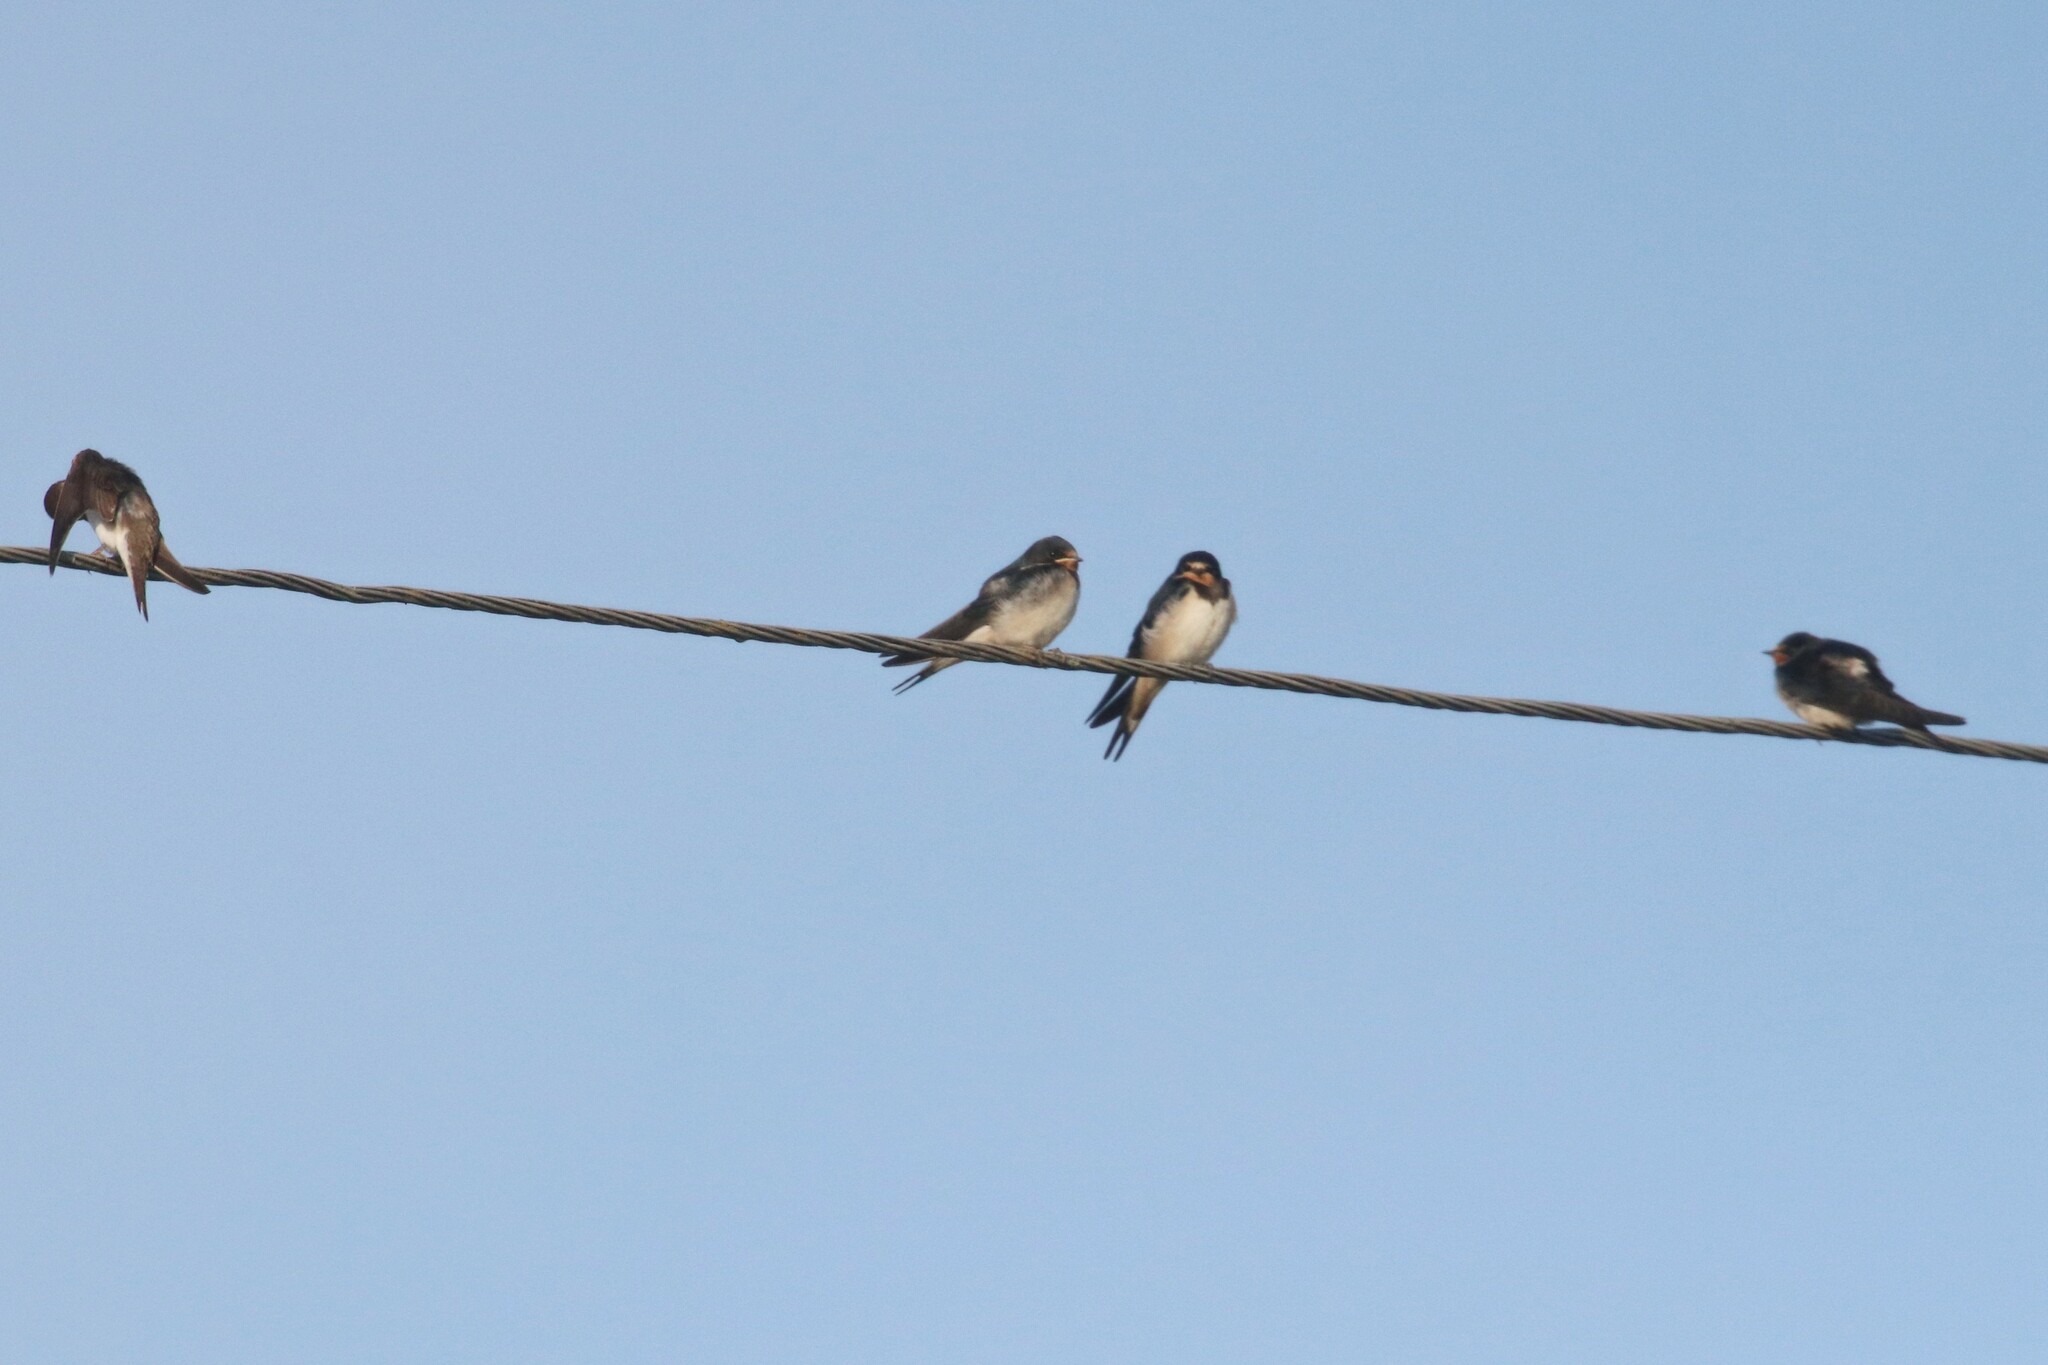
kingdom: Animalia
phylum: Chordata
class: Aves
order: Passeriformes
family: Hirundinidae
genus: Hirundo
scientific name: Hirundo rustica
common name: Barn swallow
